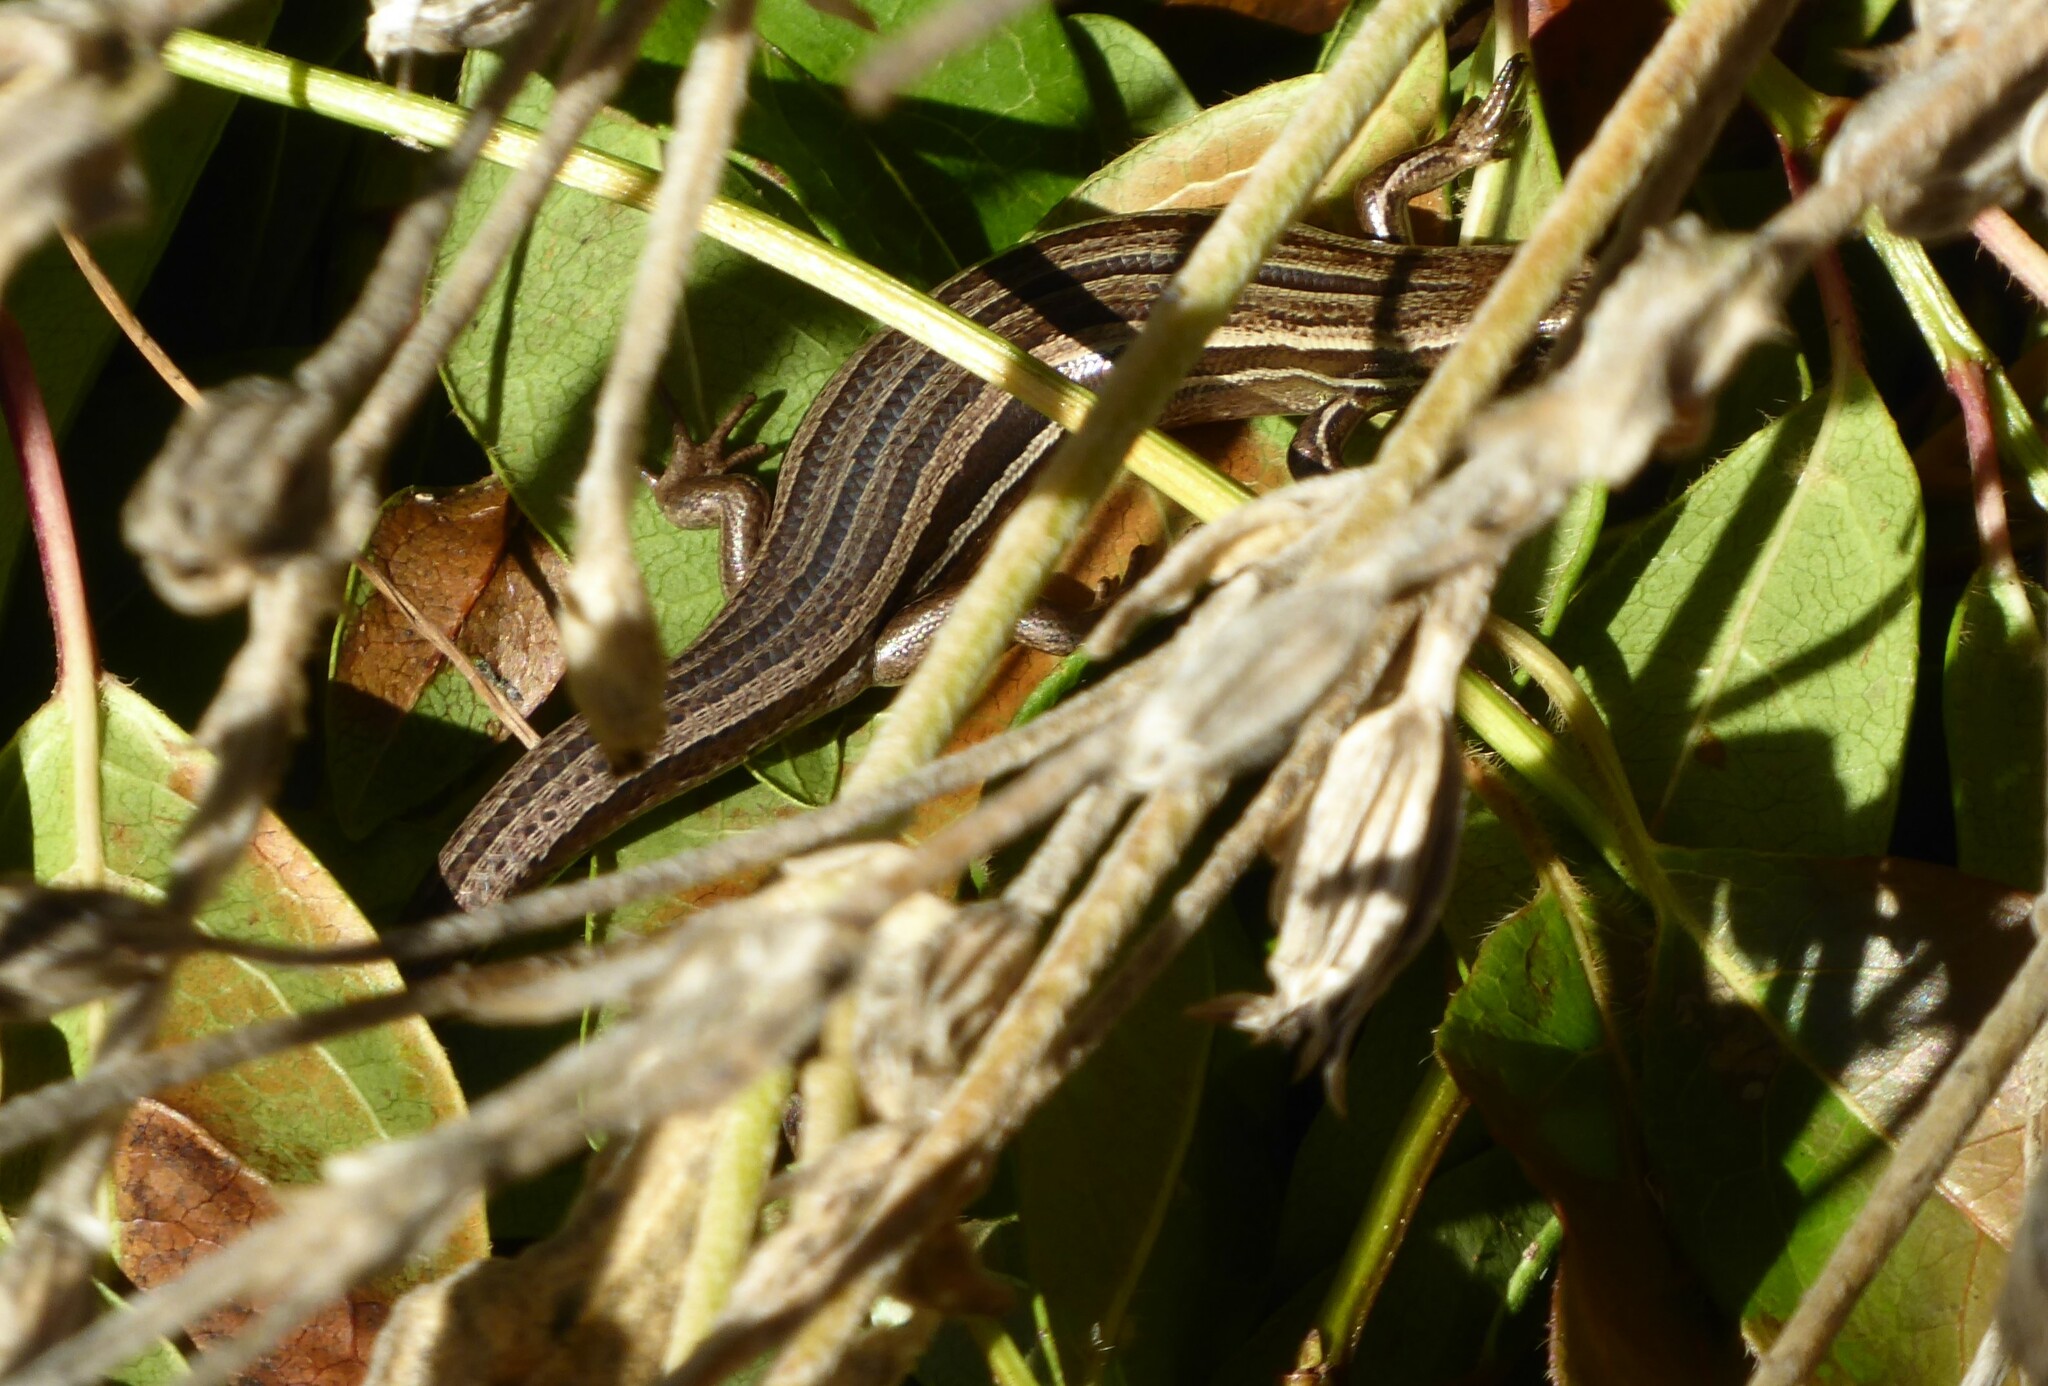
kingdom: Animalia
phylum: Chordata
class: Squamata
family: Scincidae
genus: Oligosoma
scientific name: Oligosoma polychroma
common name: Common new zealand skink
